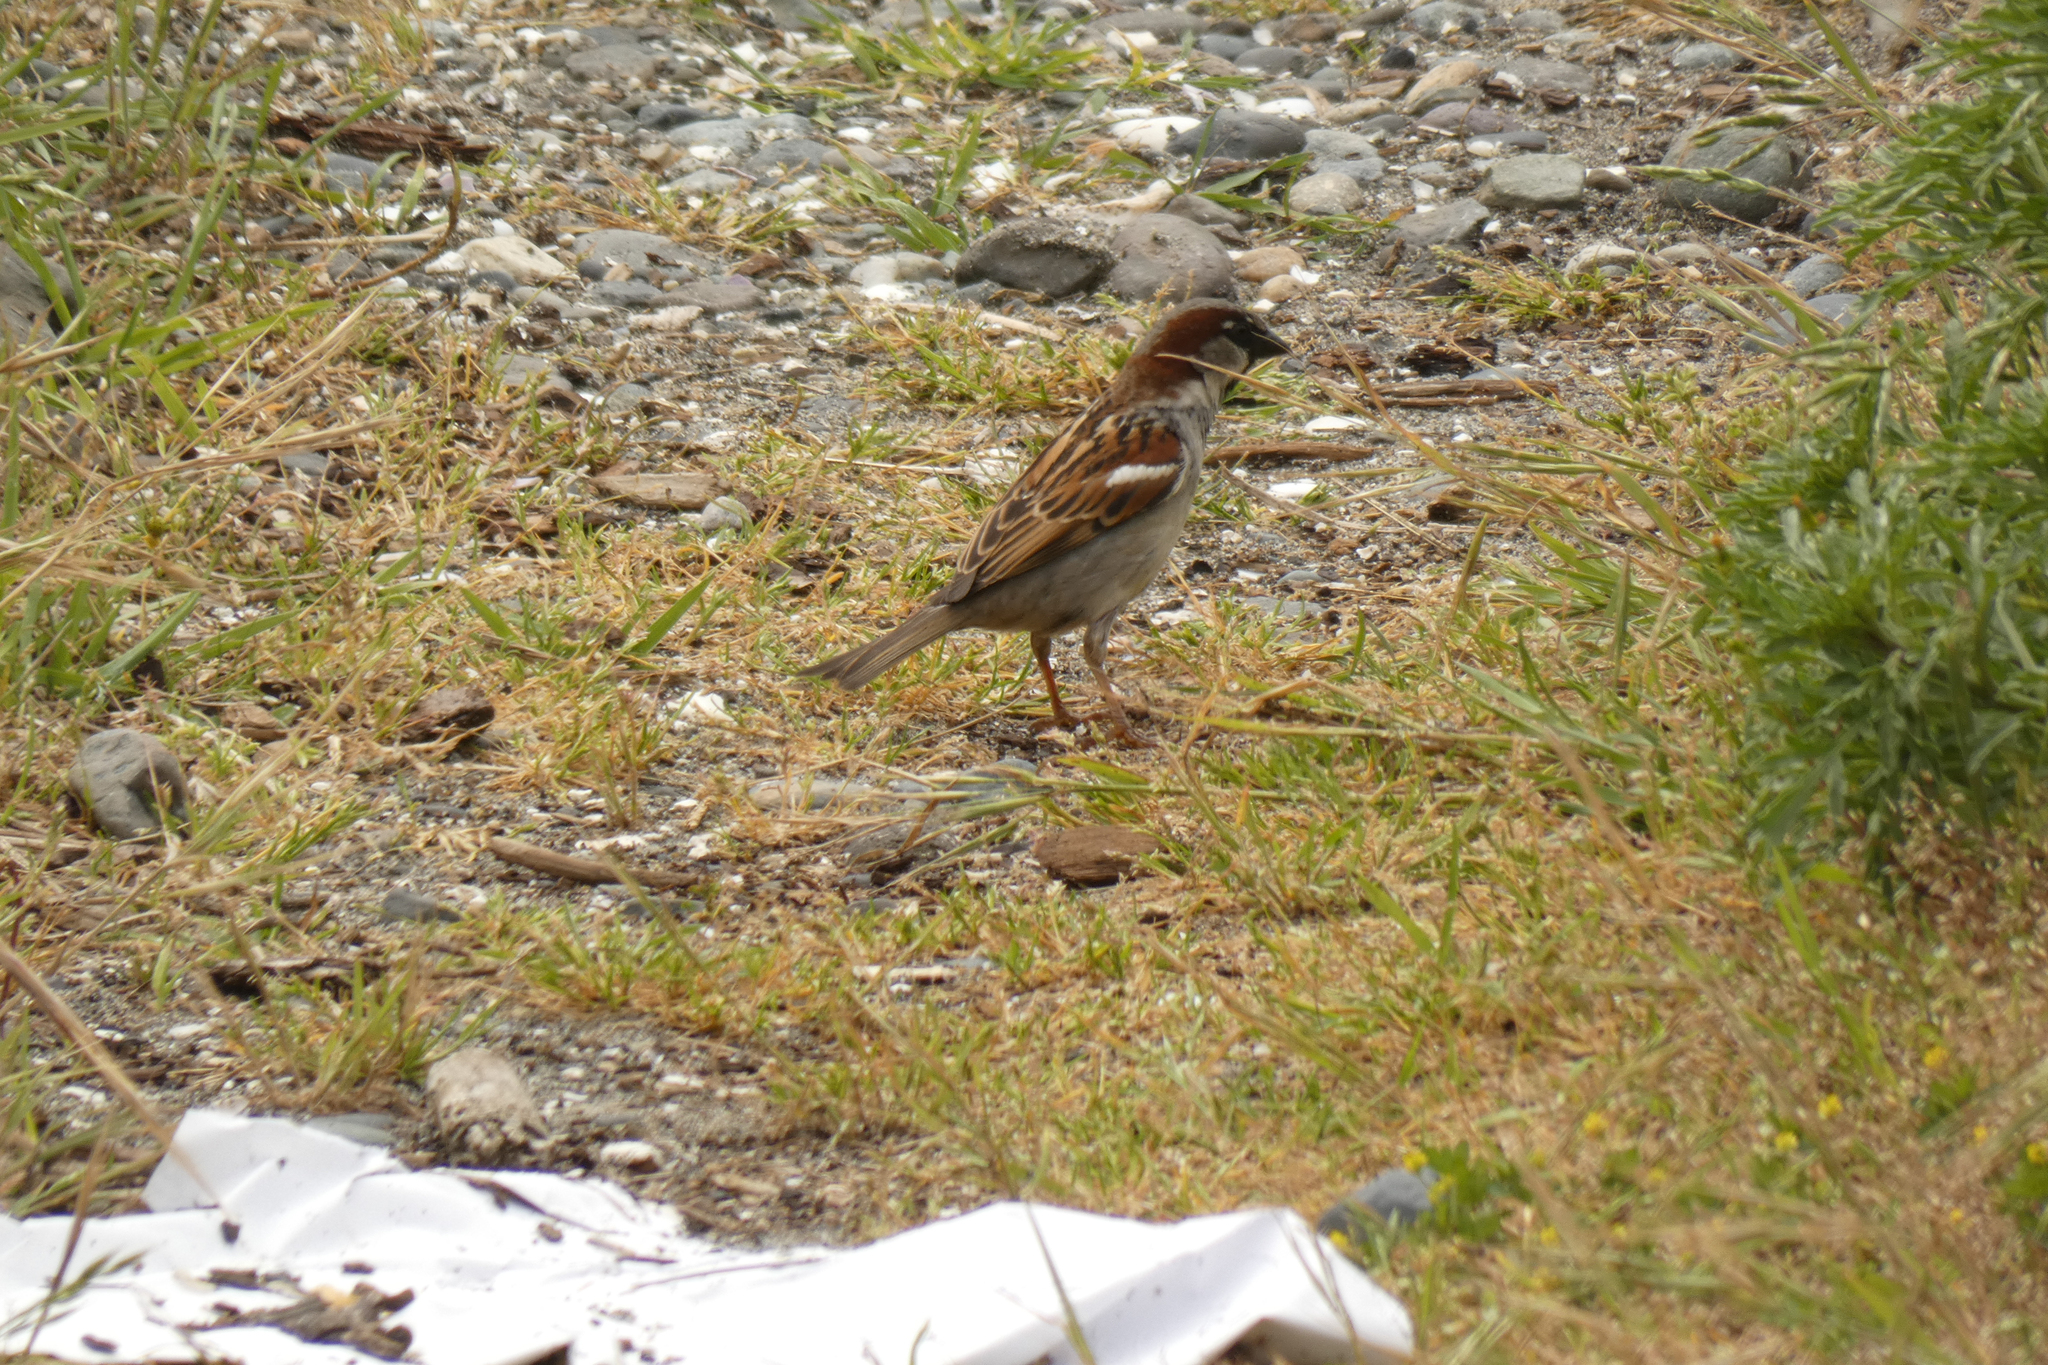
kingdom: Animalia
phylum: Chordata
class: Aves
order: Passeriformes
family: Passeridae
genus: Passer
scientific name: Passer domesticus
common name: House sparrow
